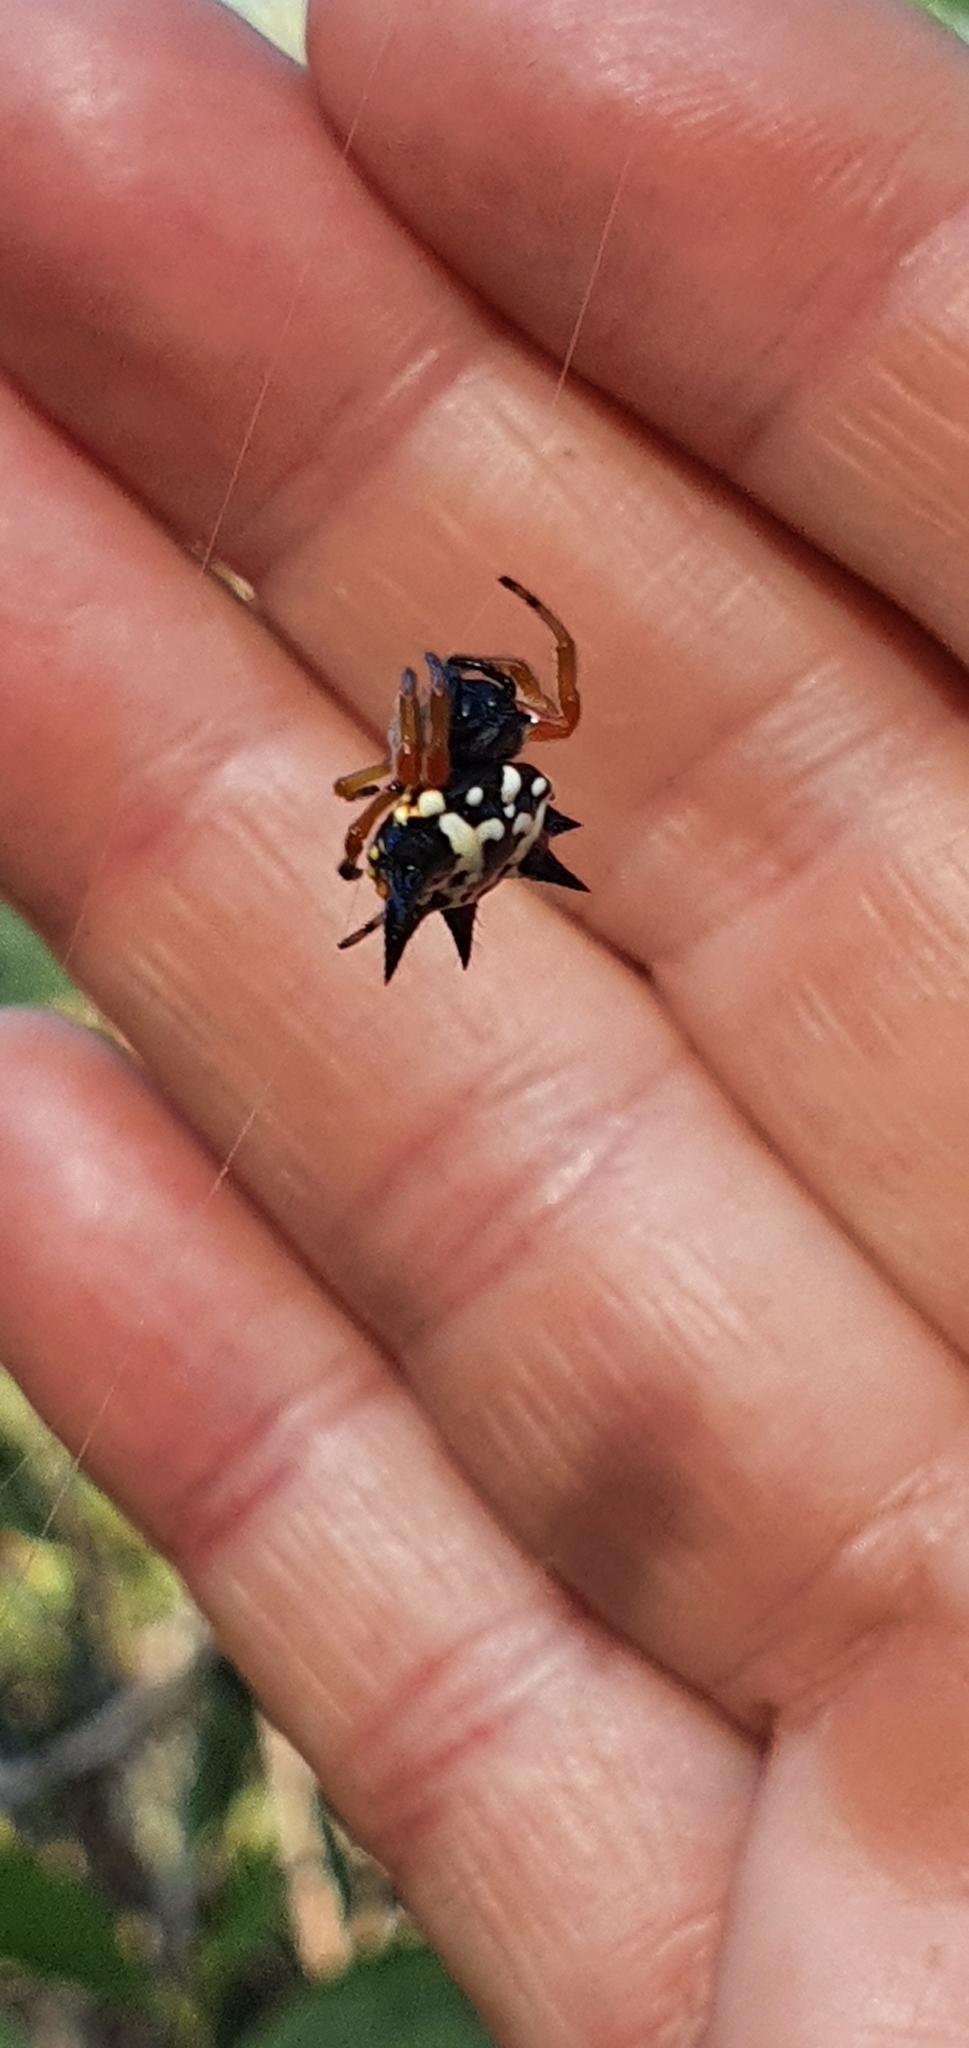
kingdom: Animalia
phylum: Arthropoda
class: Arachnida
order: Araneae
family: Araneidae
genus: Austracantha
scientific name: Austracantha minax
